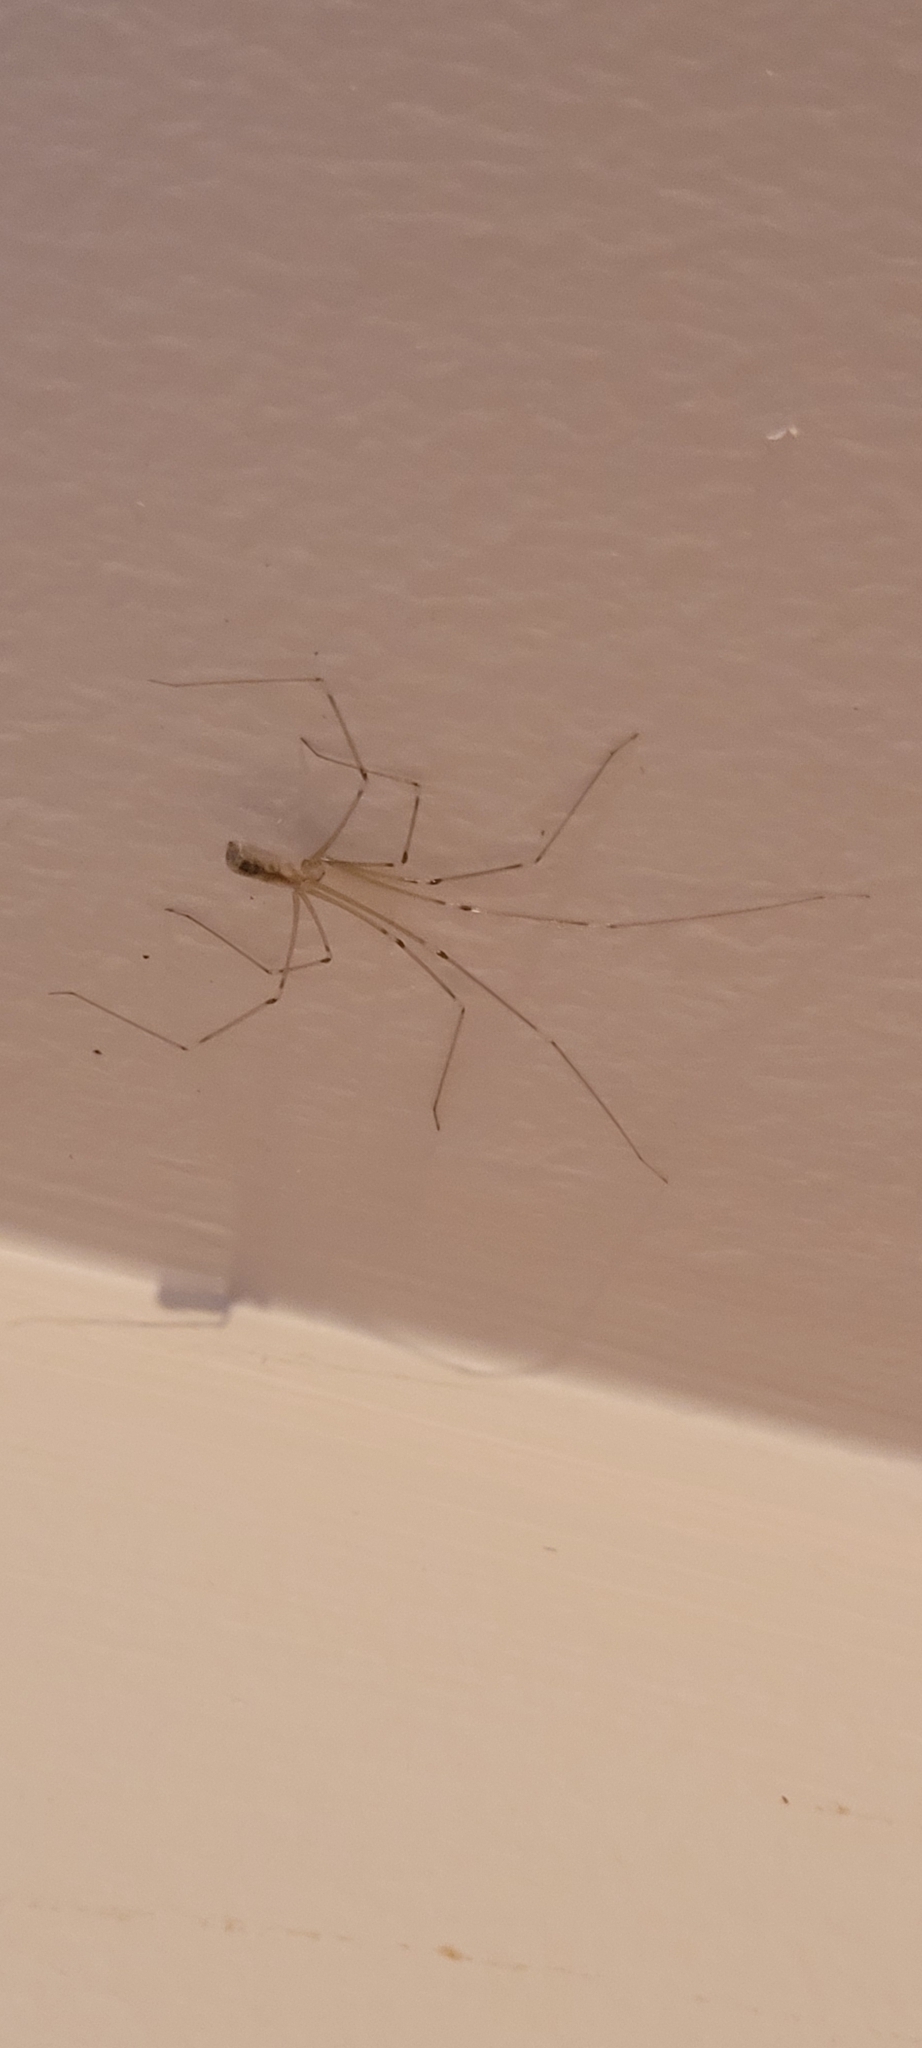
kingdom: Animalia
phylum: Arthropoda
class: Arachnida
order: Araneae
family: Pholcidae
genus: Pholcus
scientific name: Pholcus phalangioides
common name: Longbodied cellar spider
